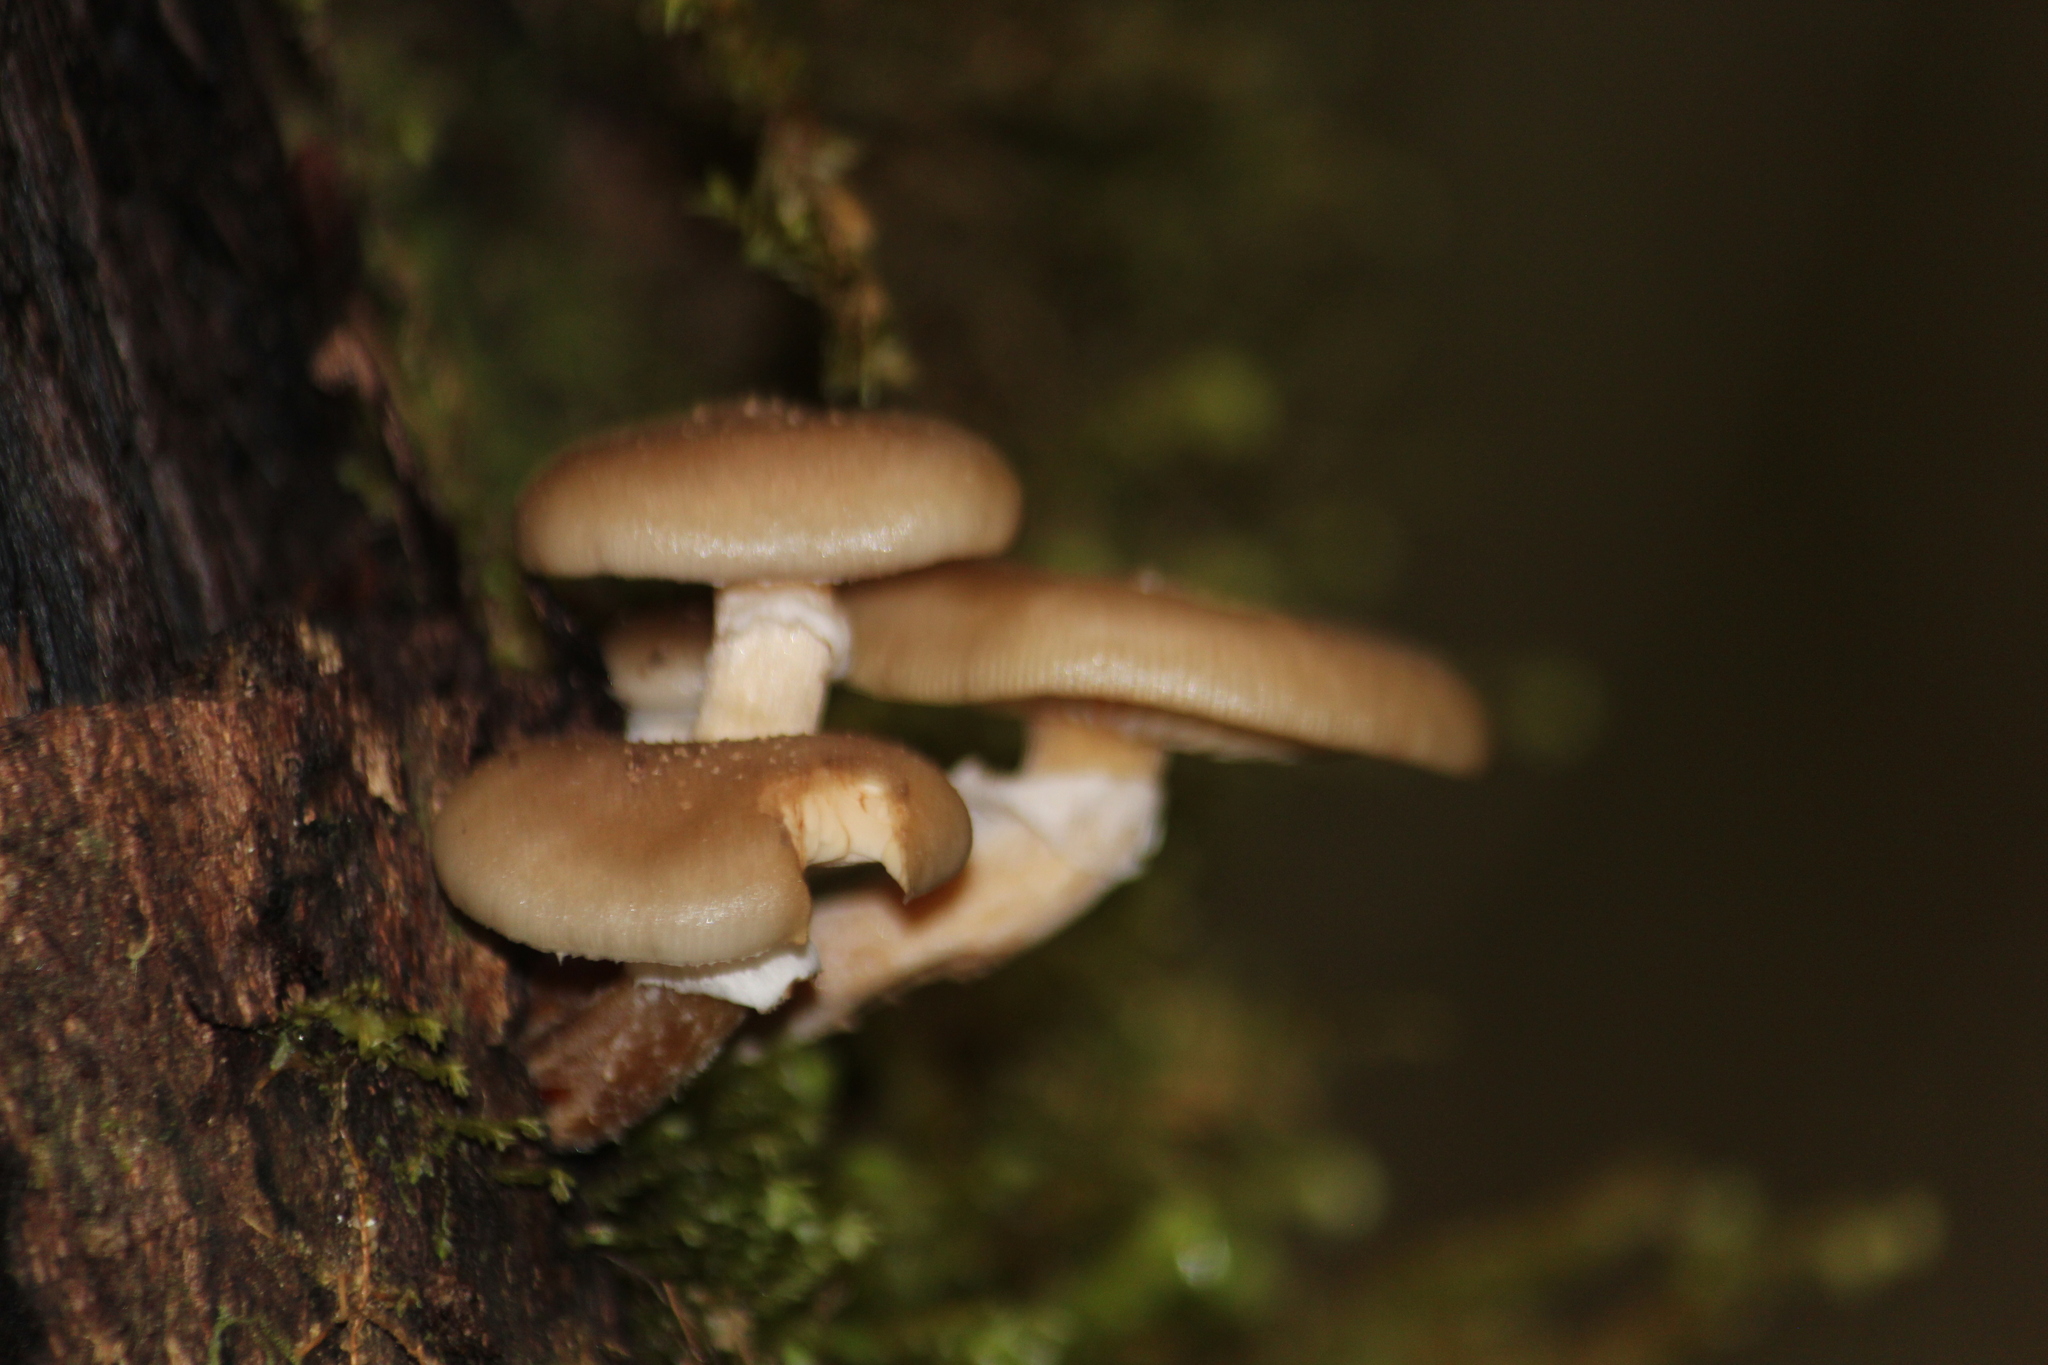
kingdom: Fungi
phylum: Basidiomycota
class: Agaricomycetes
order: Agaricales
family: Physalacriaceae
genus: Armillaria
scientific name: Armillaria novae-zelandiae
